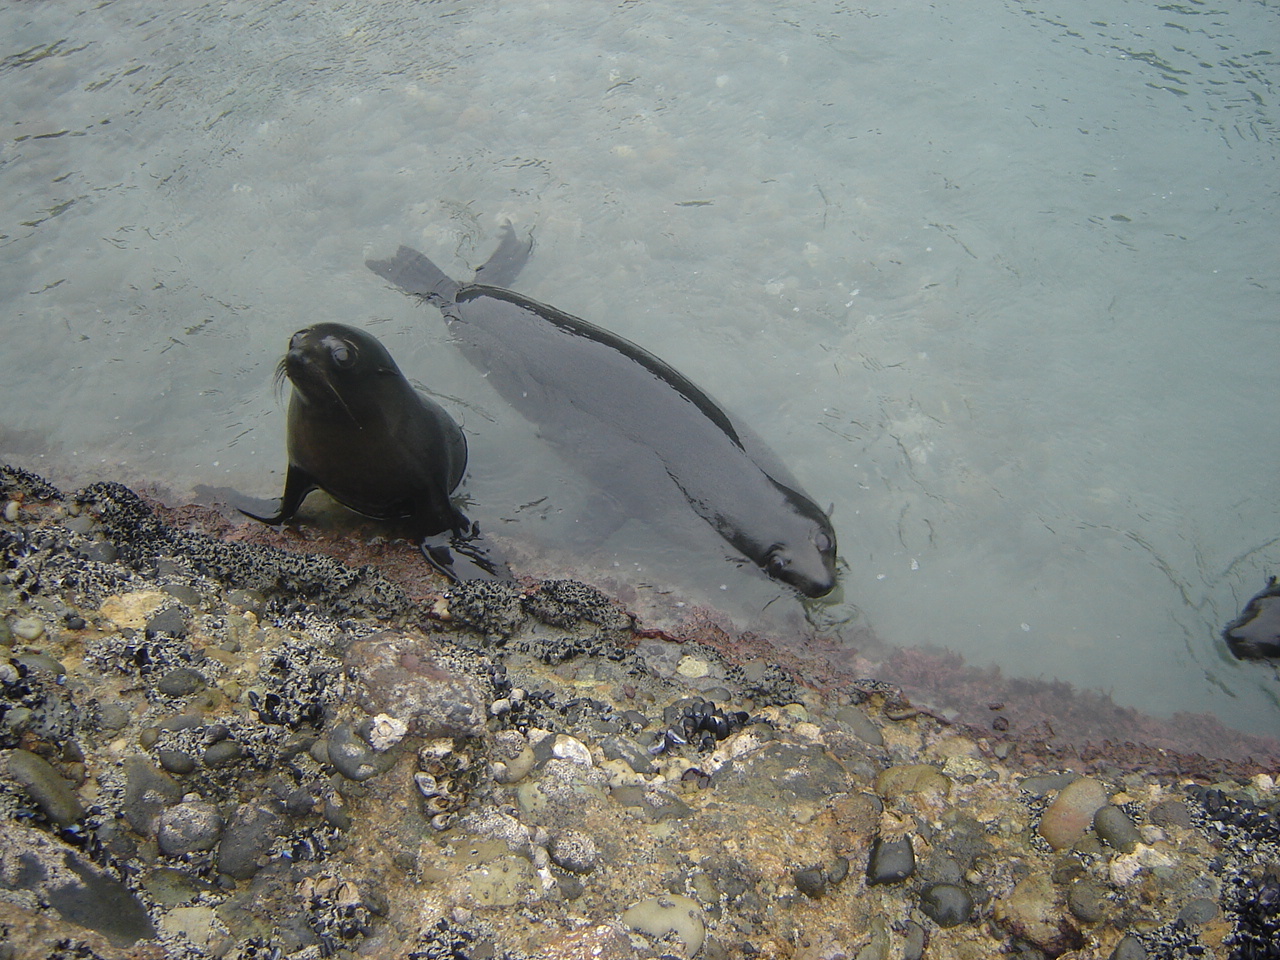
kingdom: Animalia
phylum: Chordata
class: Mammalia
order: Carnivora
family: Otariidae
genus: Arctocephalus
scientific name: Arctocephalus forsteri
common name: New zealand fur seal
